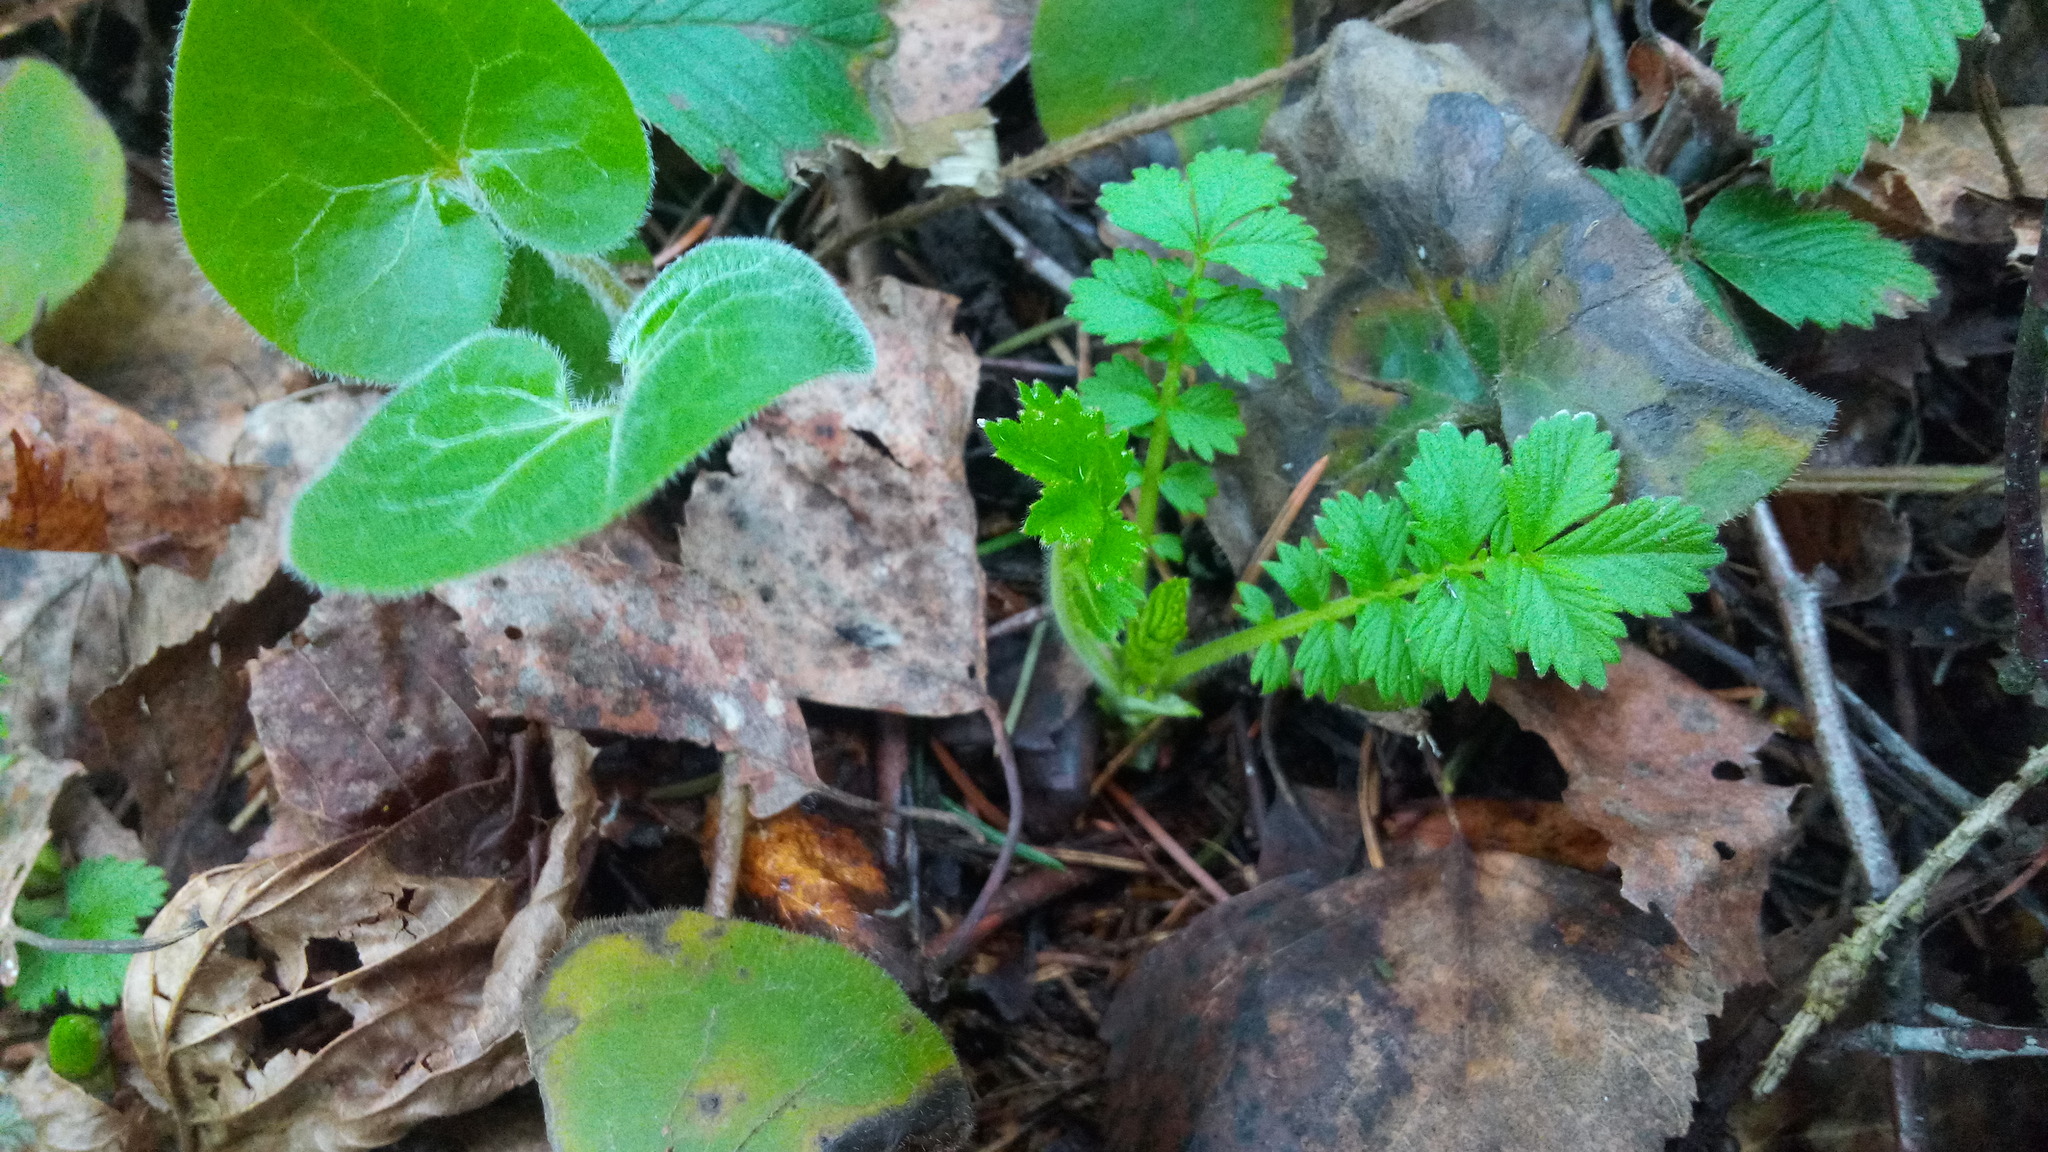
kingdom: Plantae
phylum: Tracheophyta
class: Magnoliopsida
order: Rosales
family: Rosaceae
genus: Agrimonia
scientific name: Agrimonia eupatoria
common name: Agrimony
